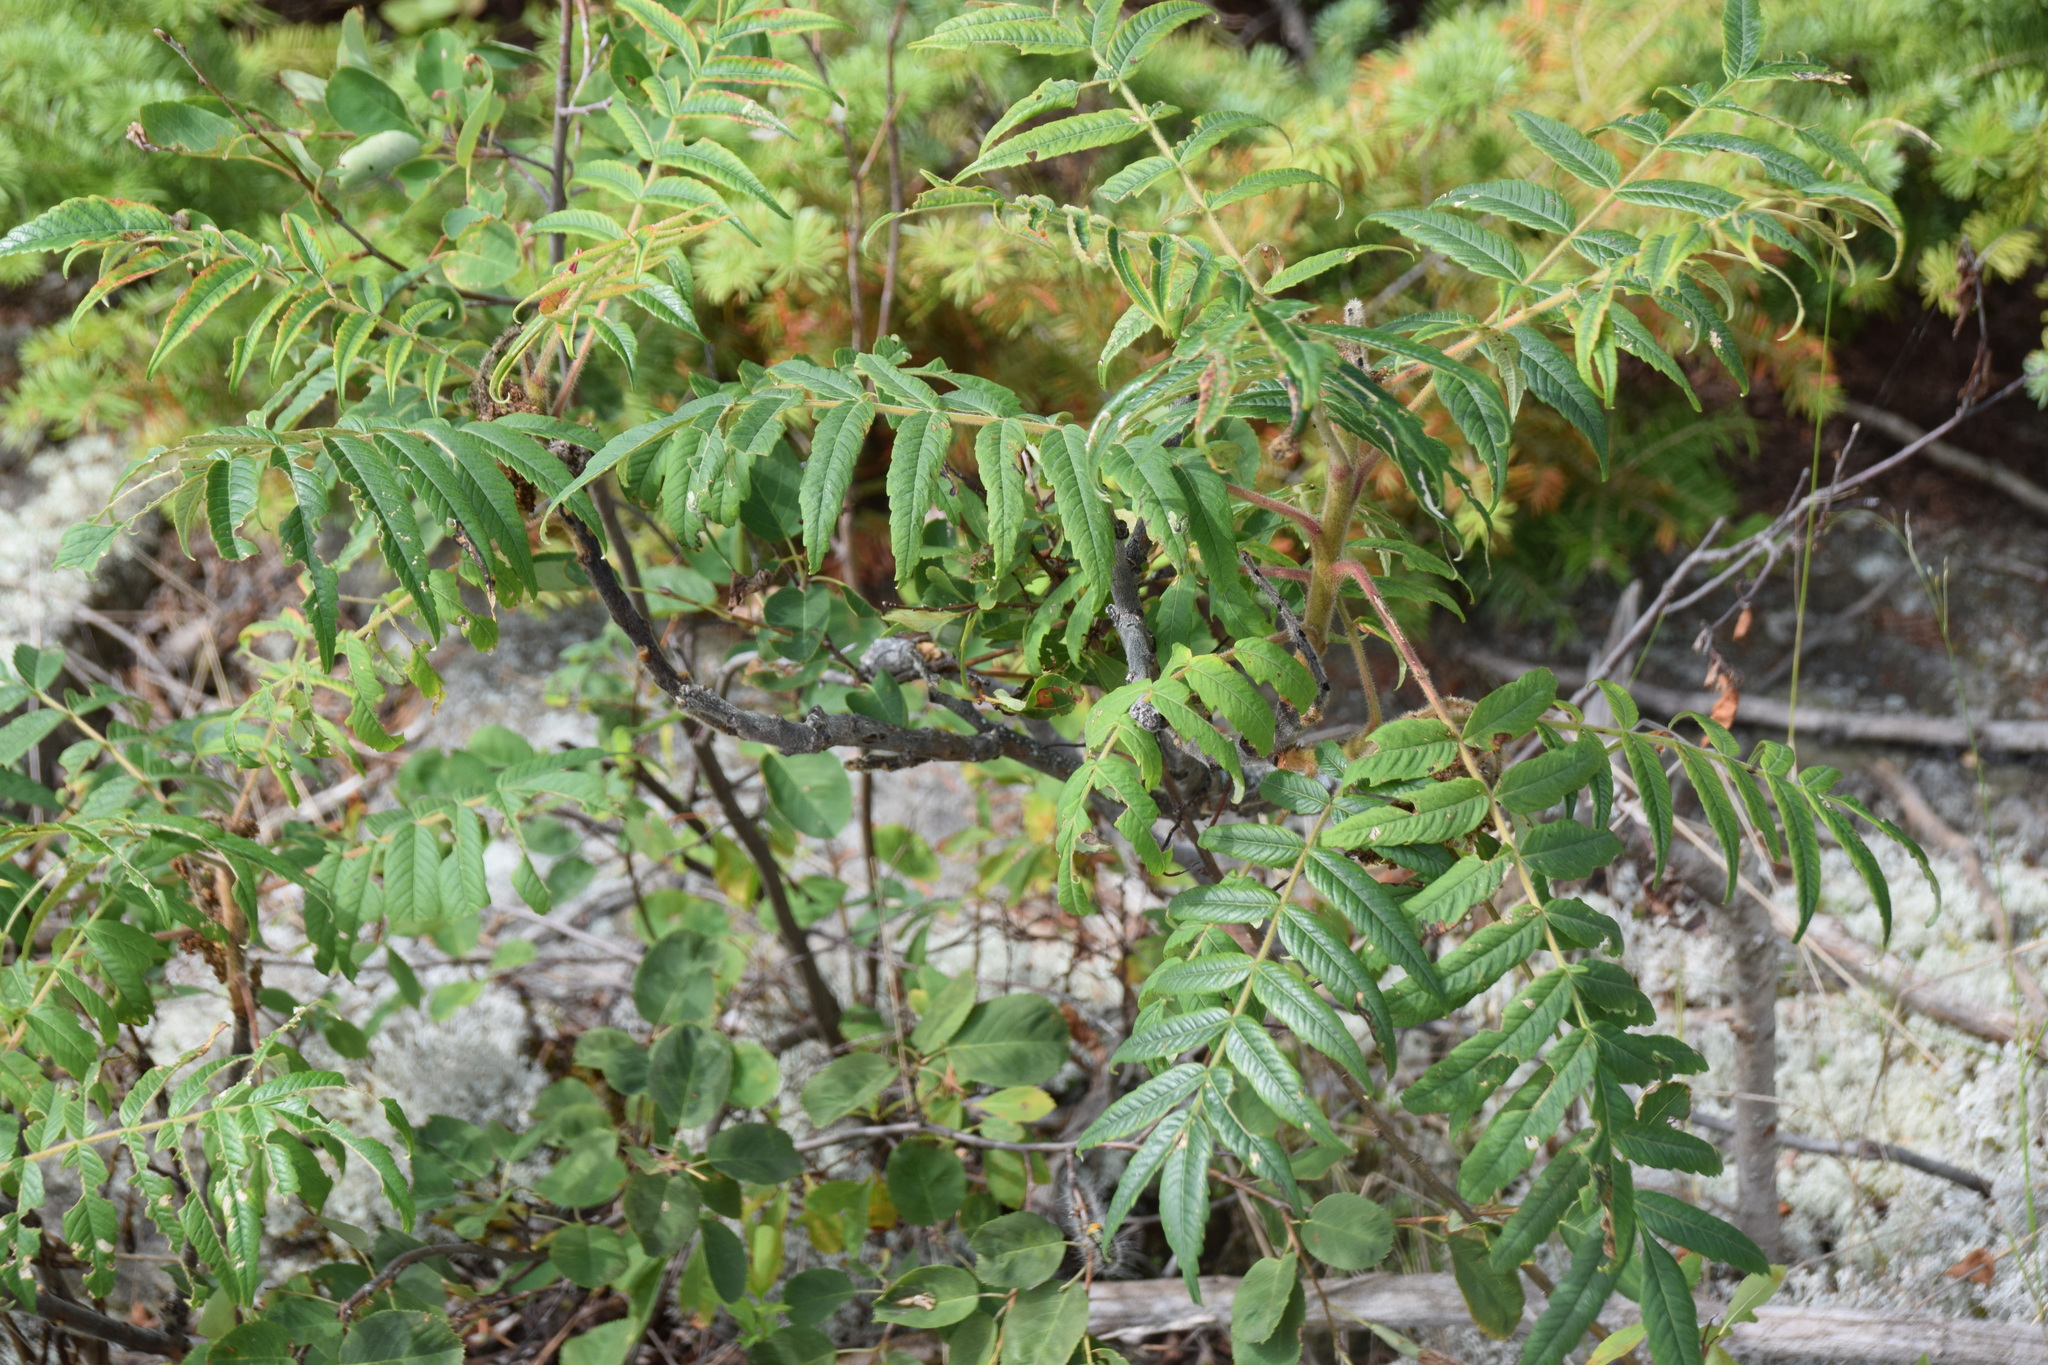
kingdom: Plantae
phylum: Tracheophyta
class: Magnoliopsida
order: Sapindales
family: Anacardiaceae
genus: Rhus
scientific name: Rhus typhina
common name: Staghorn sumac
